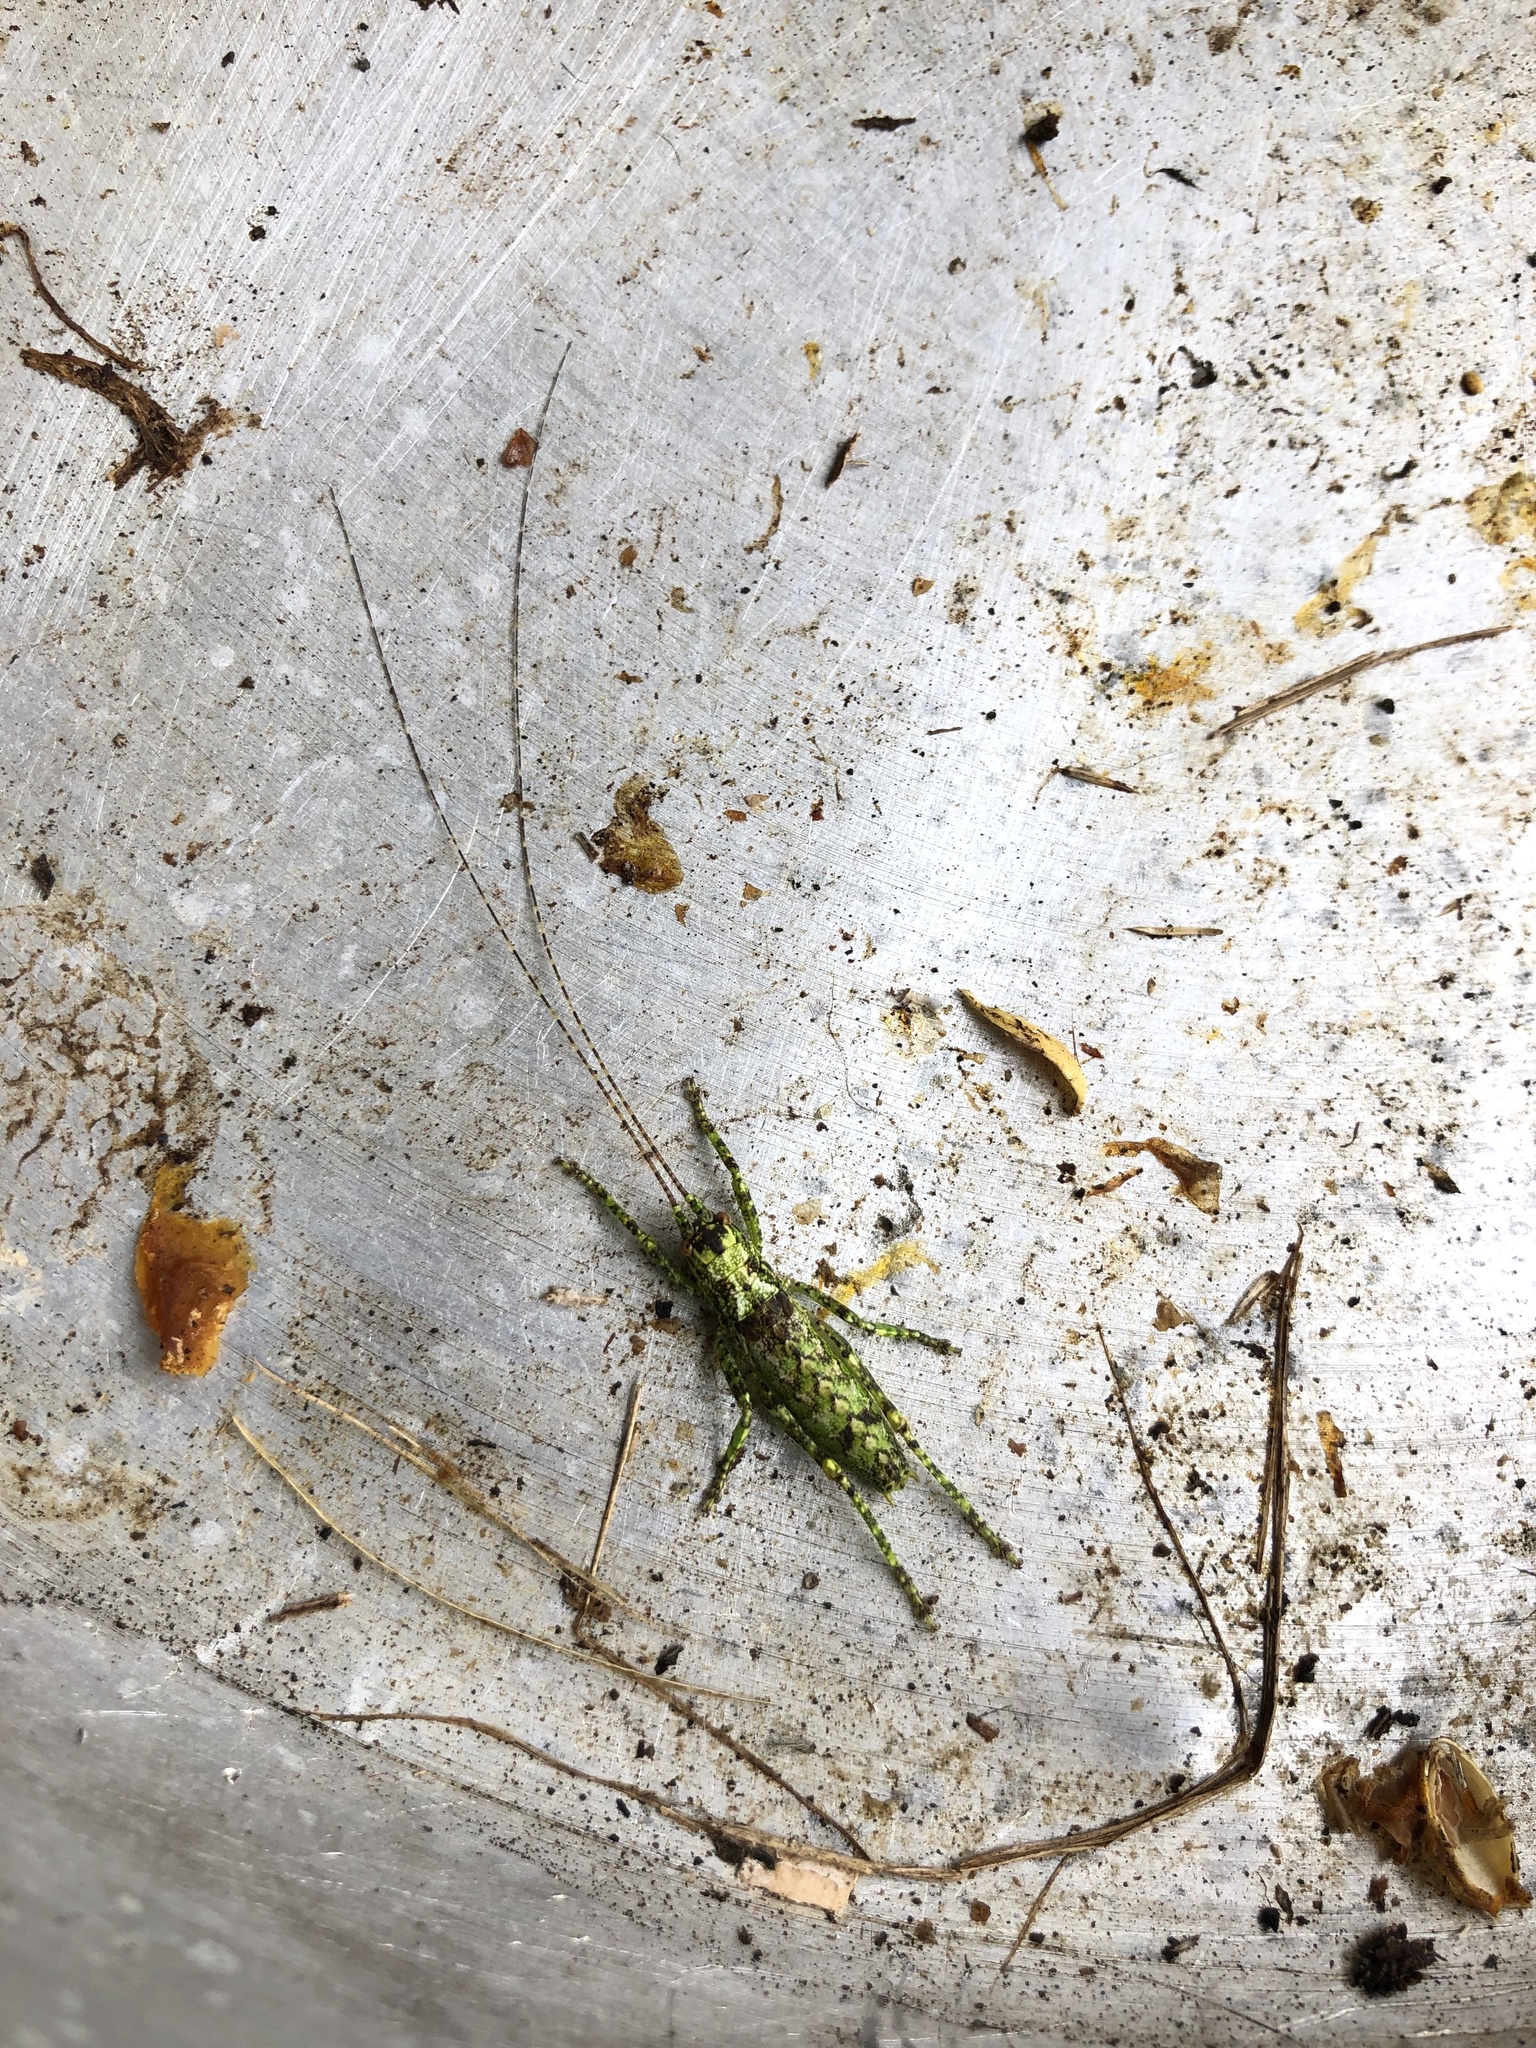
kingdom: Animalia
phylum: Arthropoda
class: Insecta
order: Orthoptera
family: Tettigoniidae
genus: Nesoecia
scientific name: Nesoecia cooksonii
